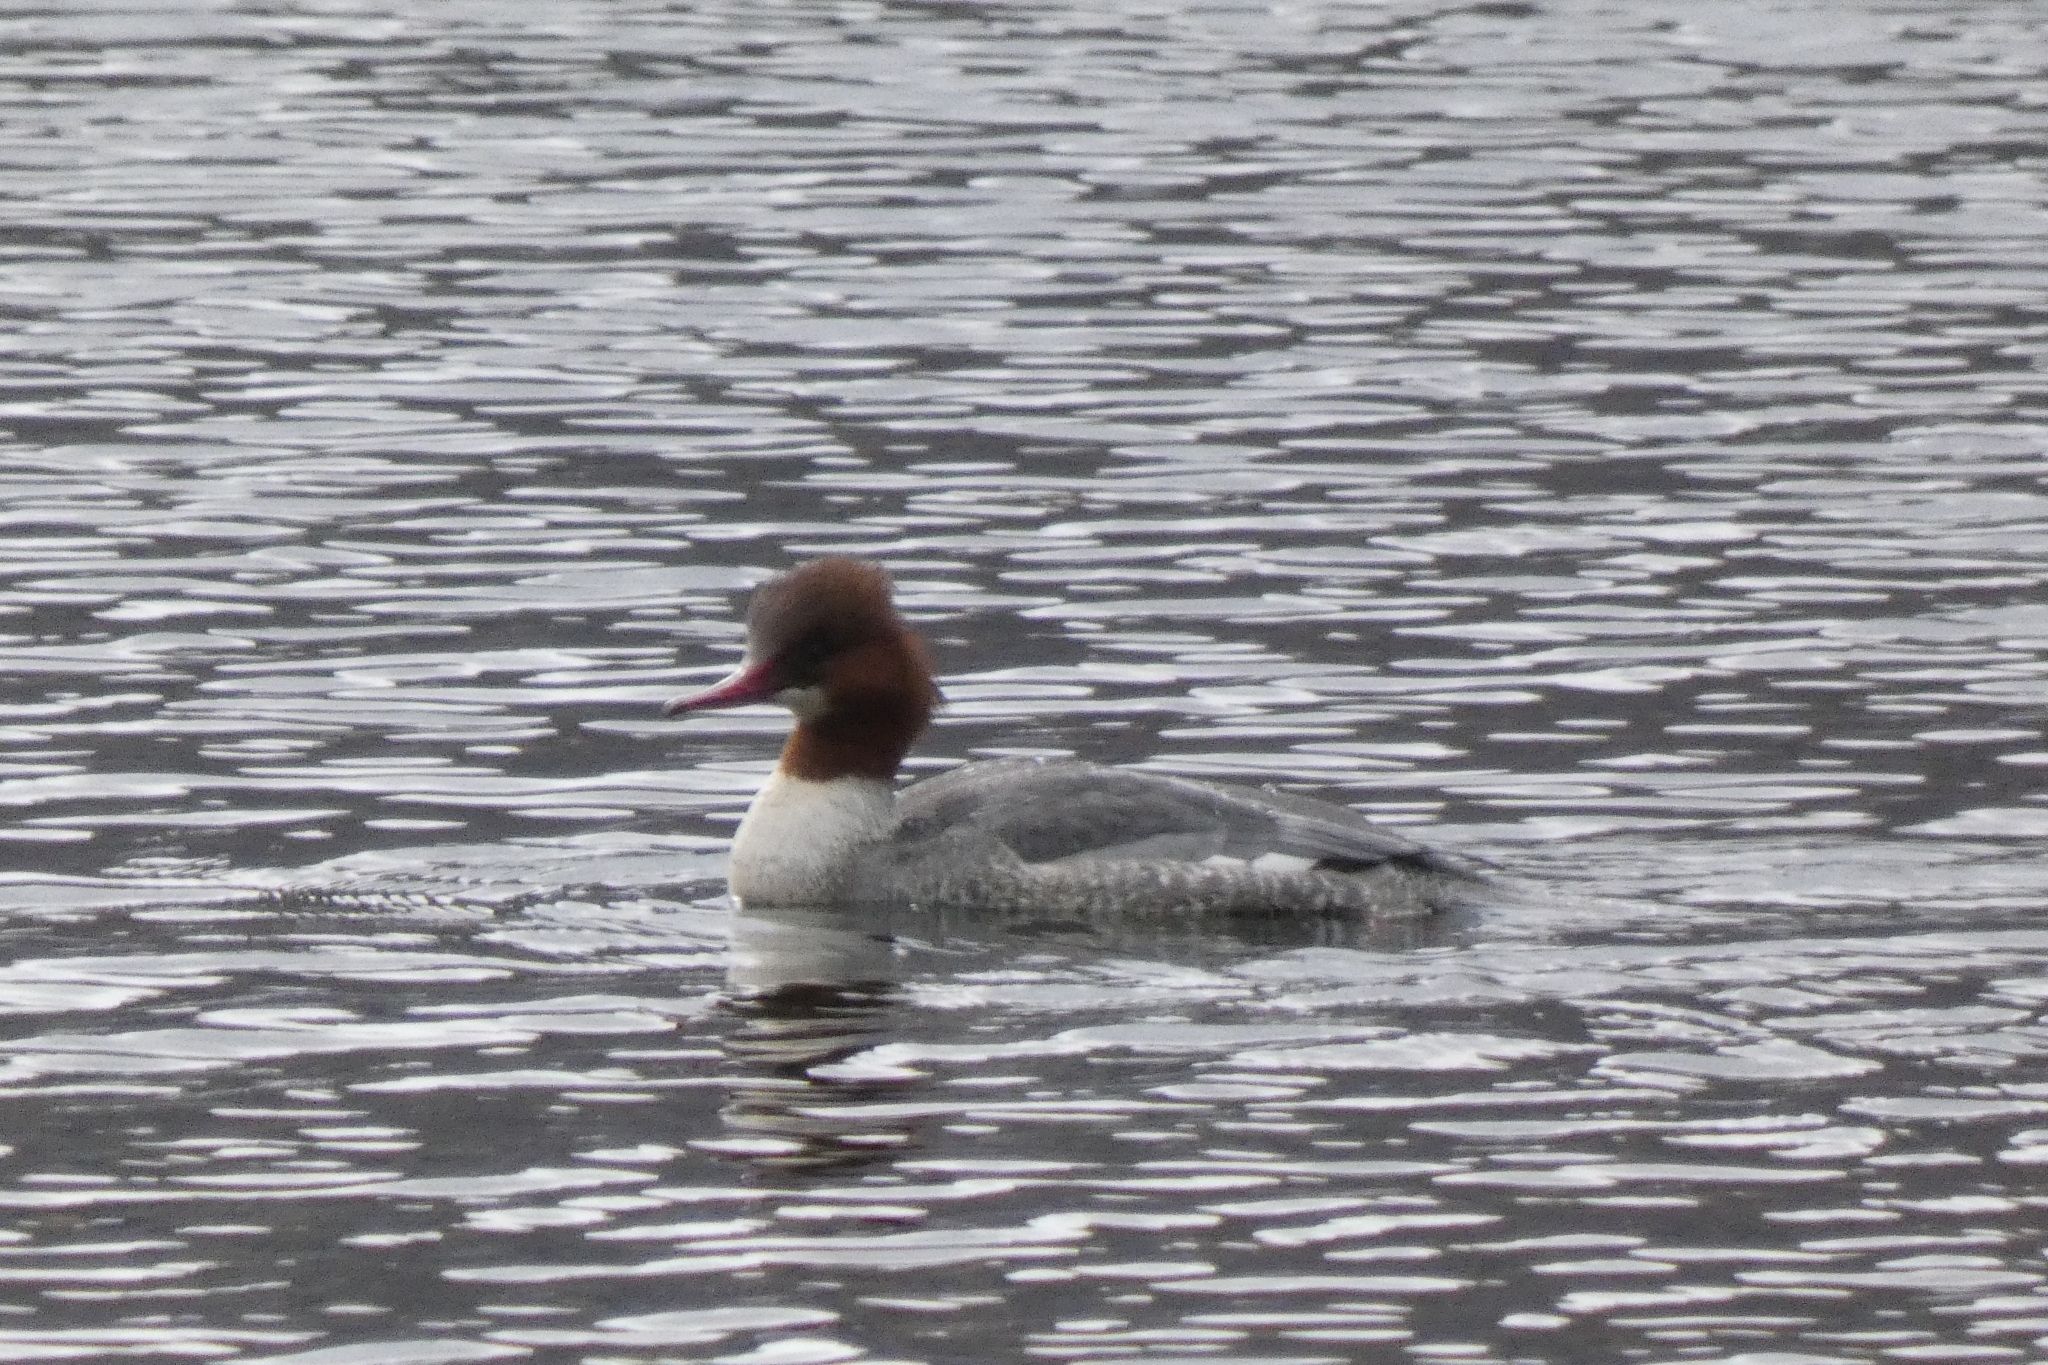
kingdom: Animalia
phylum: Chordata
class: Aves
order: Anseriformes
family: Anatidae
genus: Mergus
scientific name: Mergus merganser
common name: Common merganser
